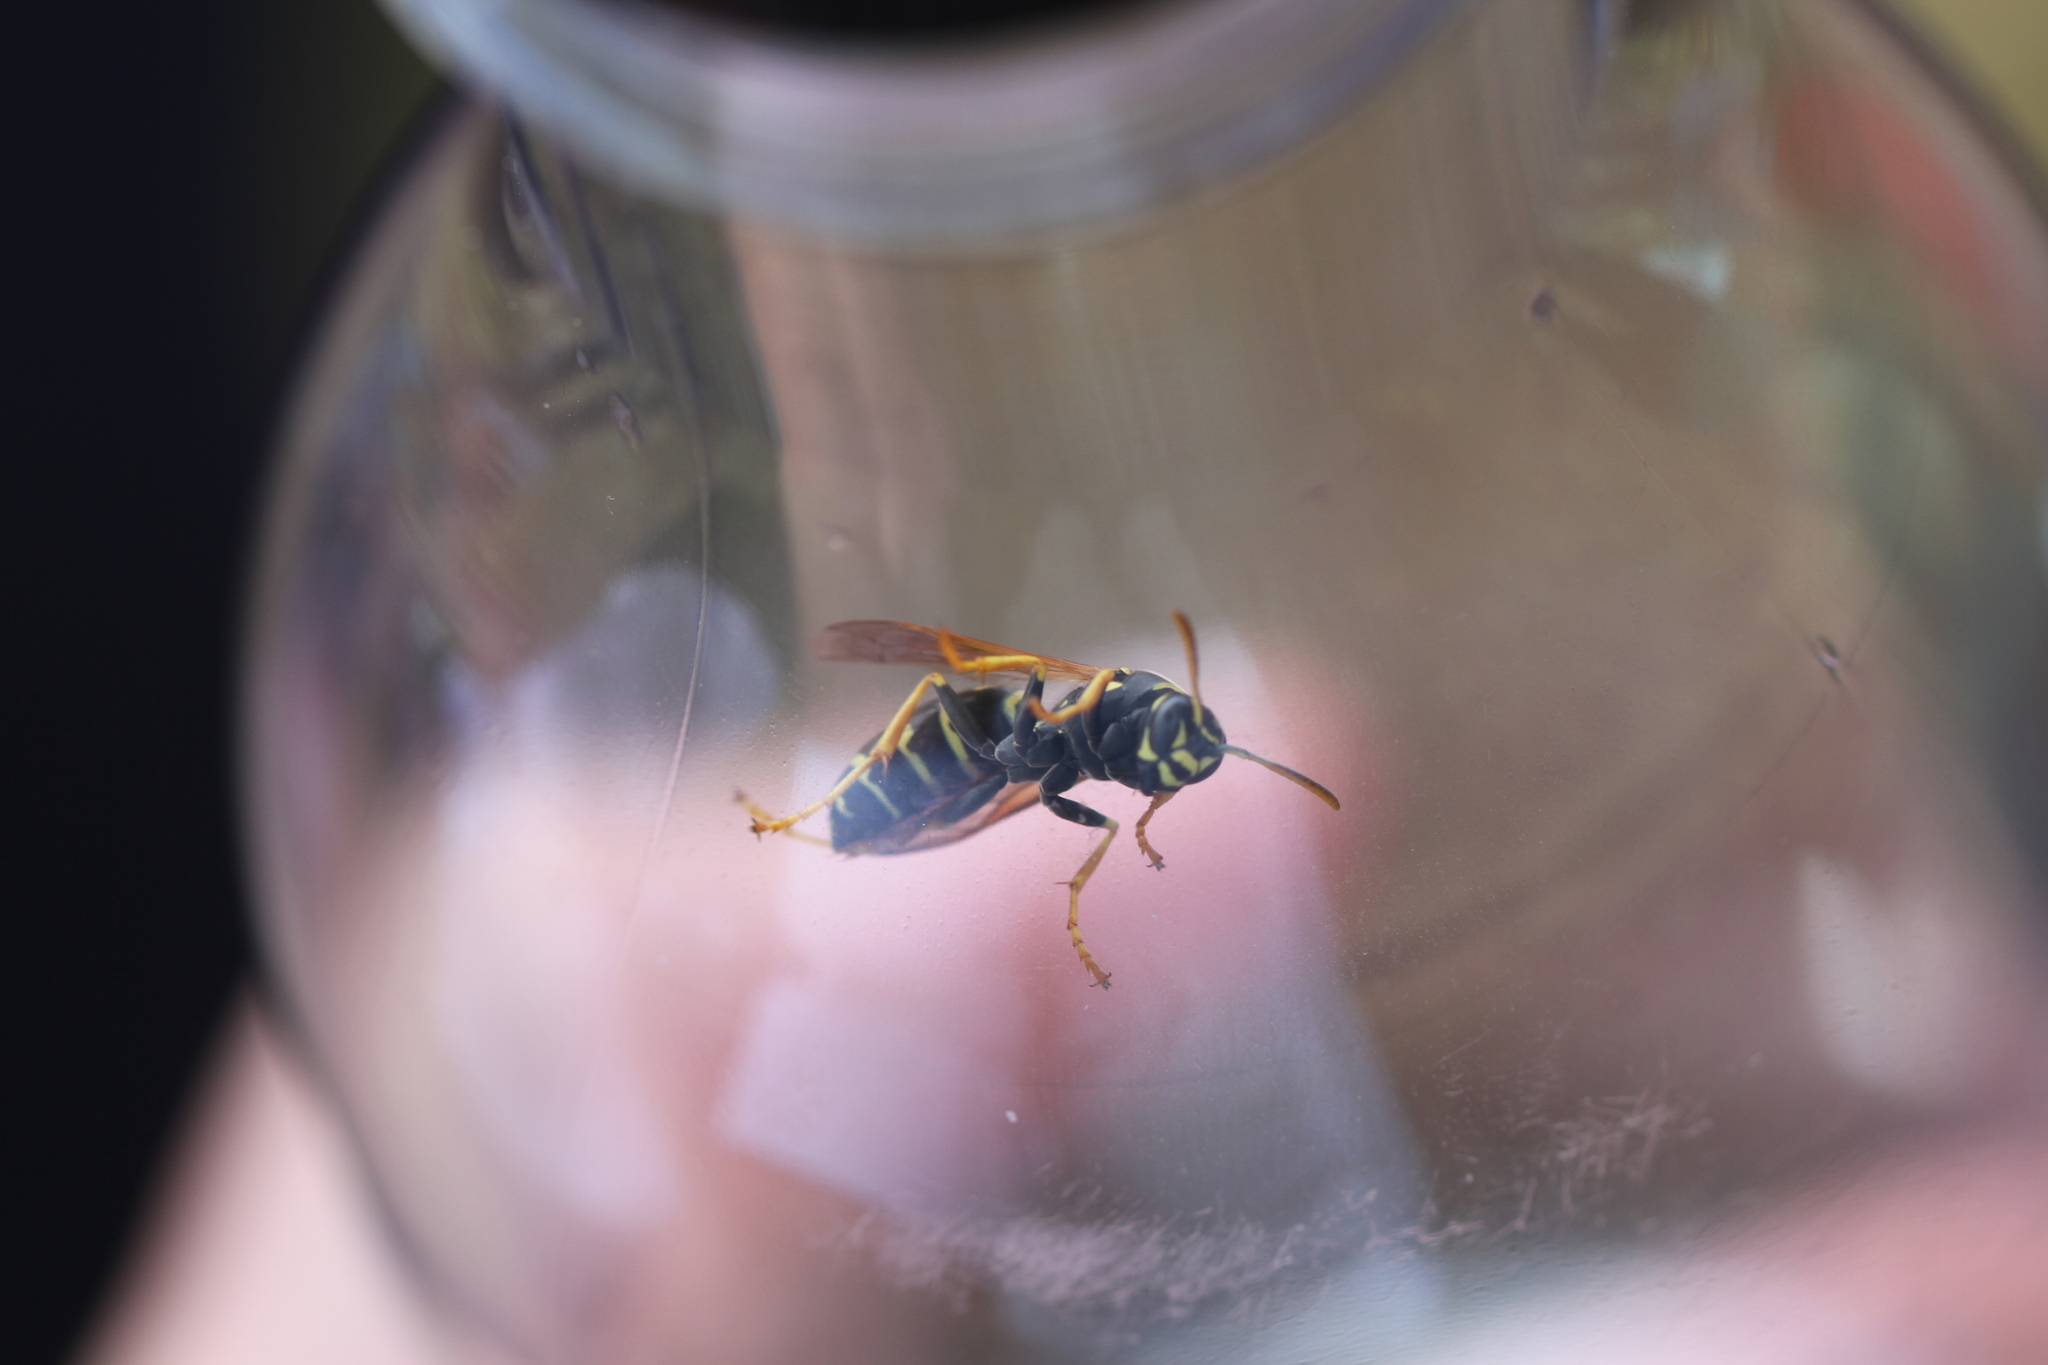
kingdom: Animalia
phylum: Arthropoda
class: Insecta
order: Hymenoptera
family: Eumenidae
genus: Polistes
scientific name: Polistes nimpha
